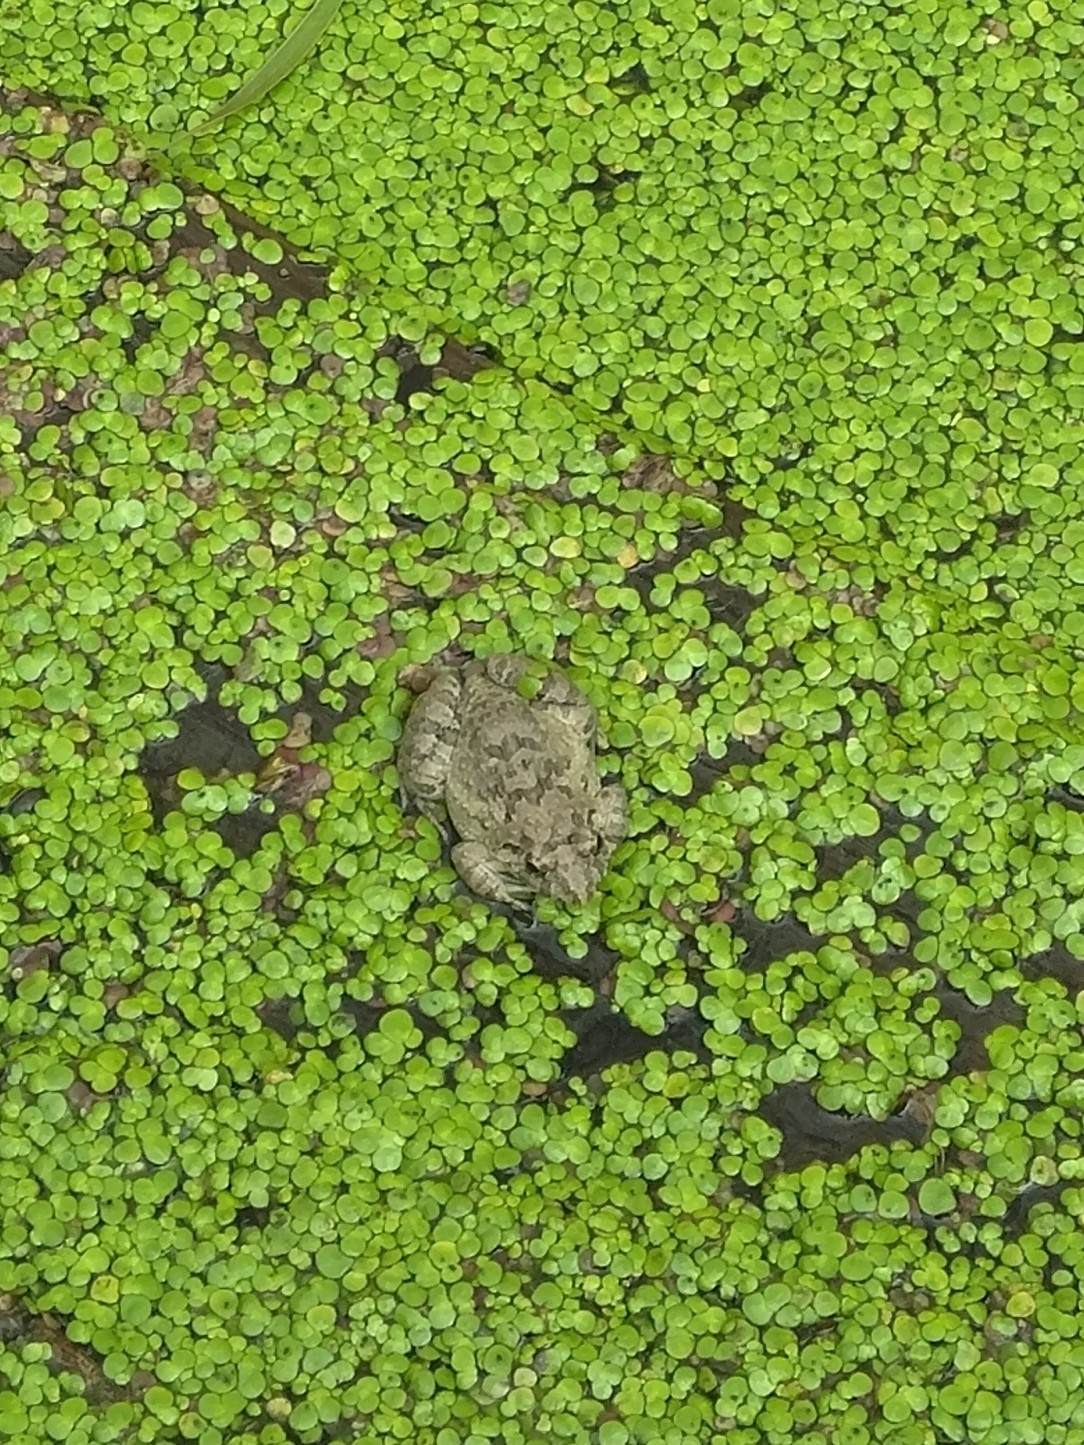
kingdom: Animalia
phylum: Chordata
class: Amphibia
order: Anura
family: Dicroglossidae
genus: Fejervarya
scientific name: Fejervarya limnocharis
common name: Asian grass frog/common pond frog/field frog/grass frog/indian rice frog
